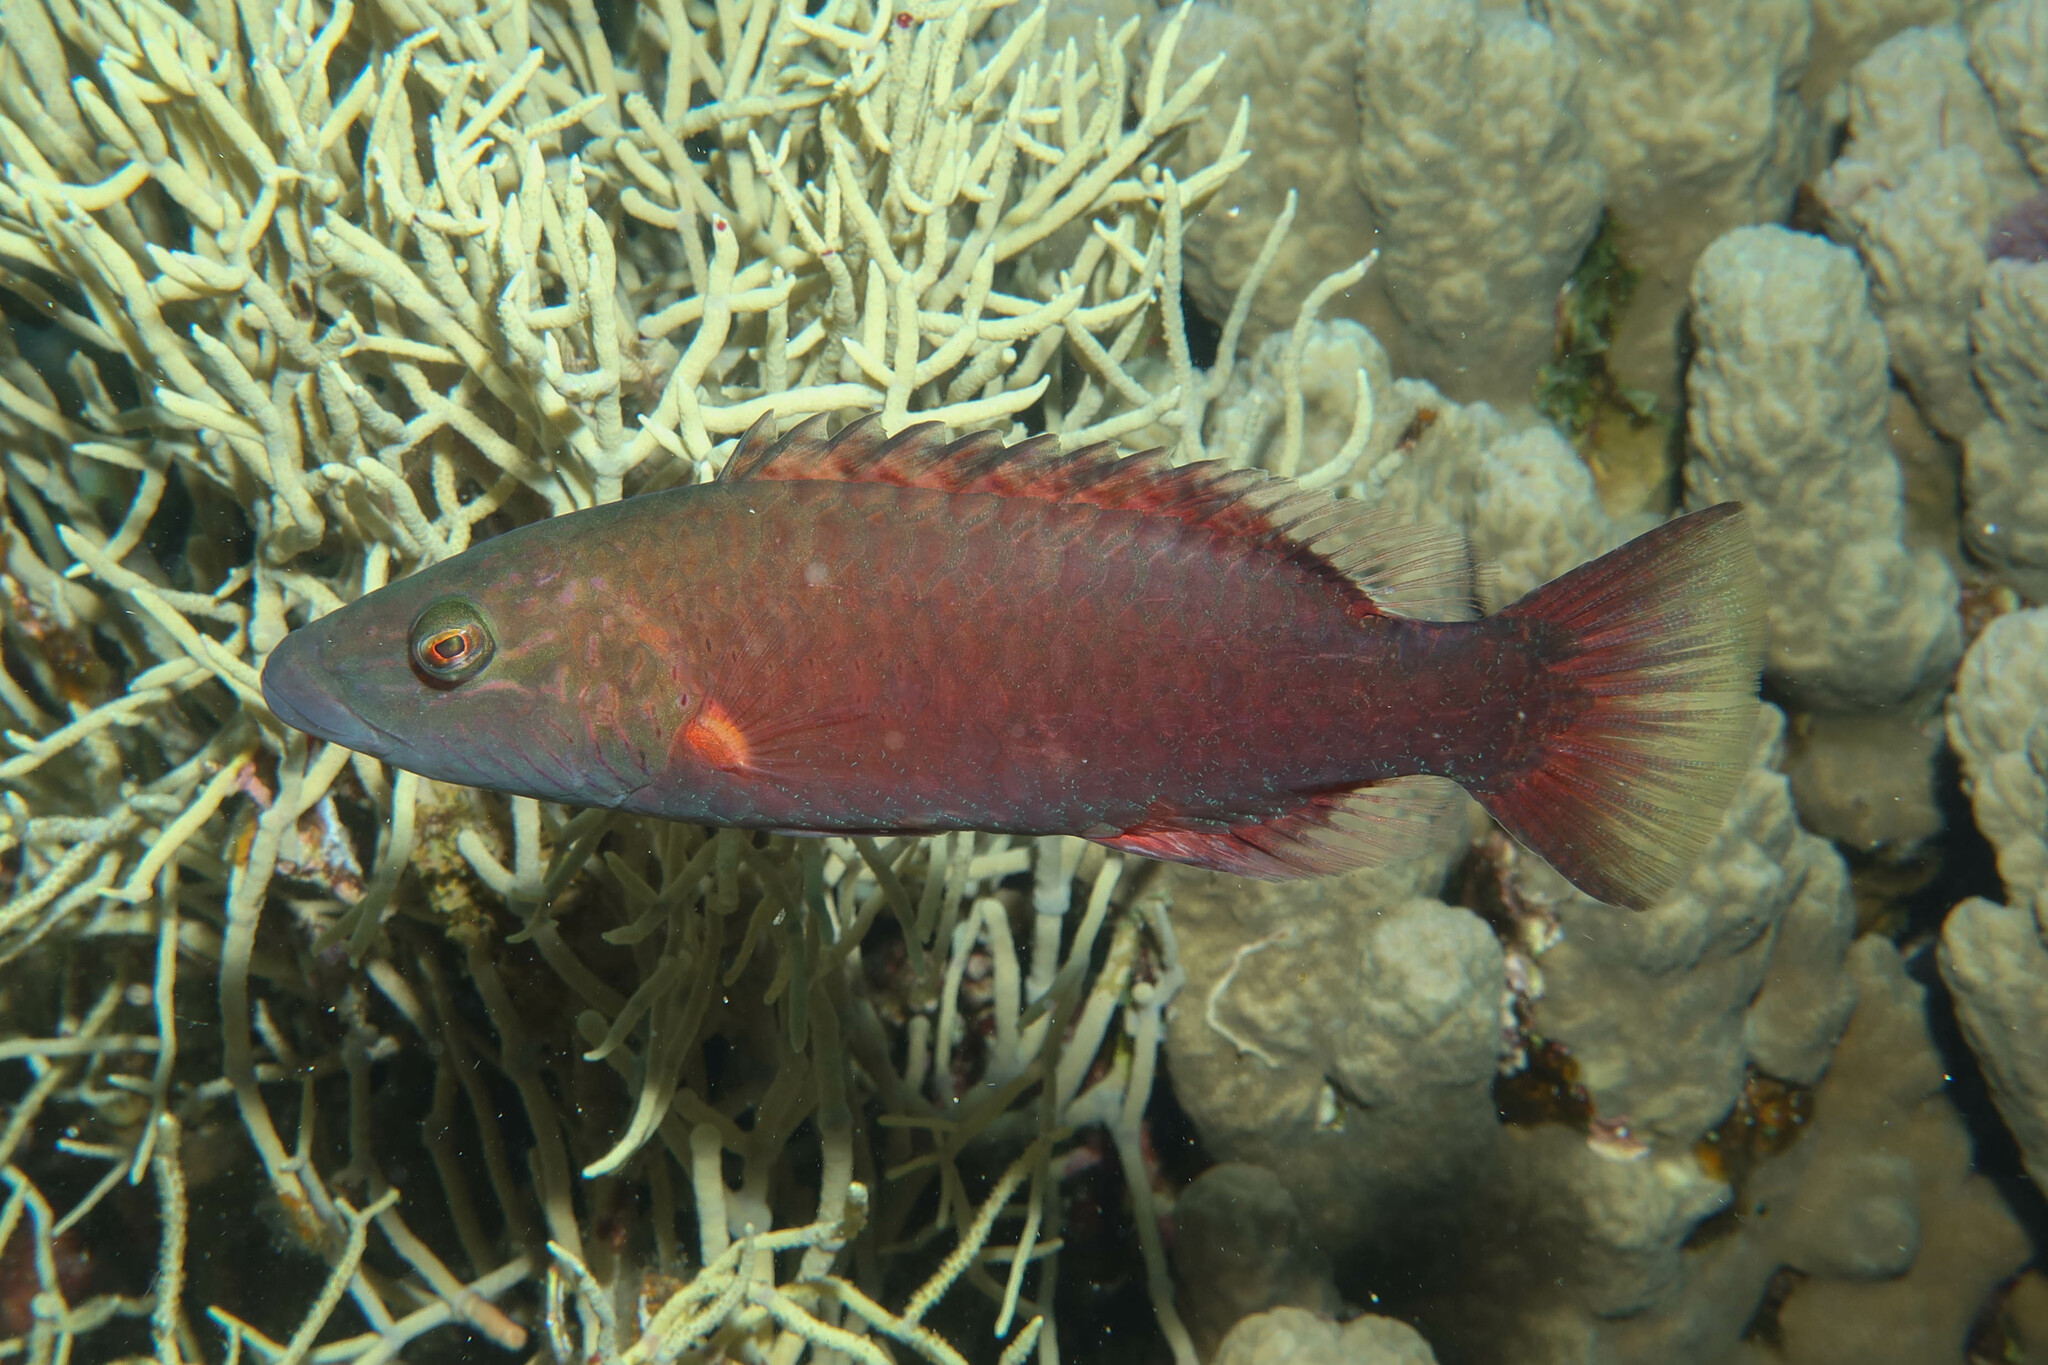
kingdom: Animalia
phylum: Chordata
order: Perciformes
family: Labridae
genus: Oxycheilinus
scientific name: Oxycheilinus digramma
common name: Bandcheek wrasse
